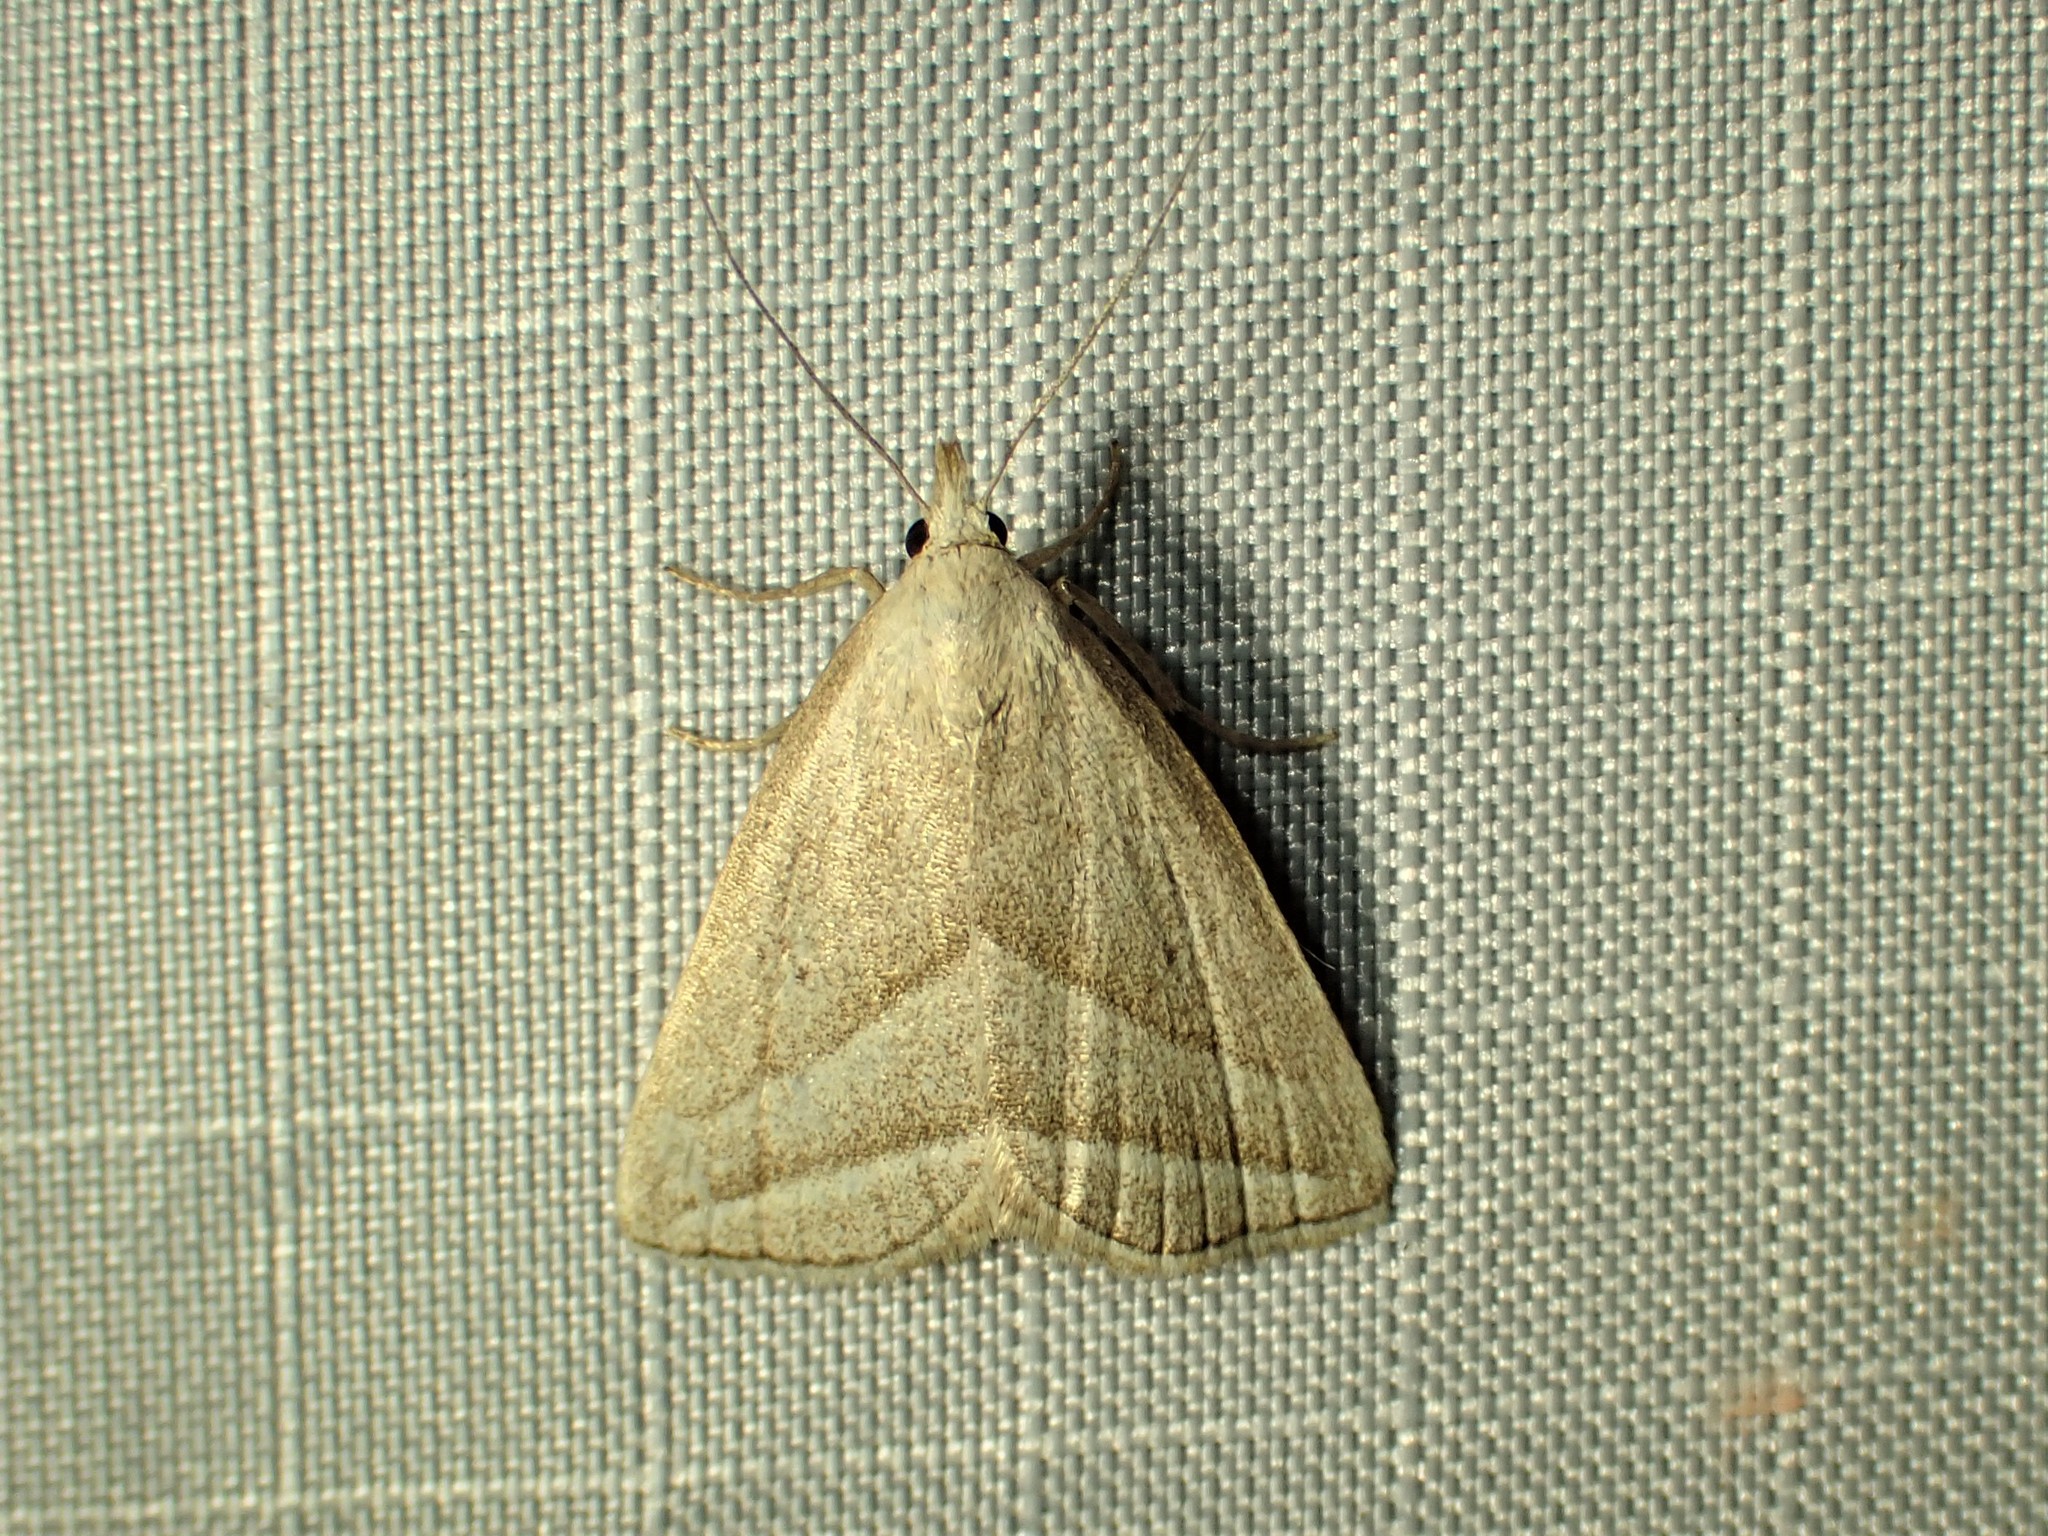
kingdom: Animalia
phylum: Arthropoda
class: Insecta
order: Lepidoptera
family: Erebidae
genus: Macrochilo
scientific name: Macrochilo absorptalis
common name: Slant-lined owlet
